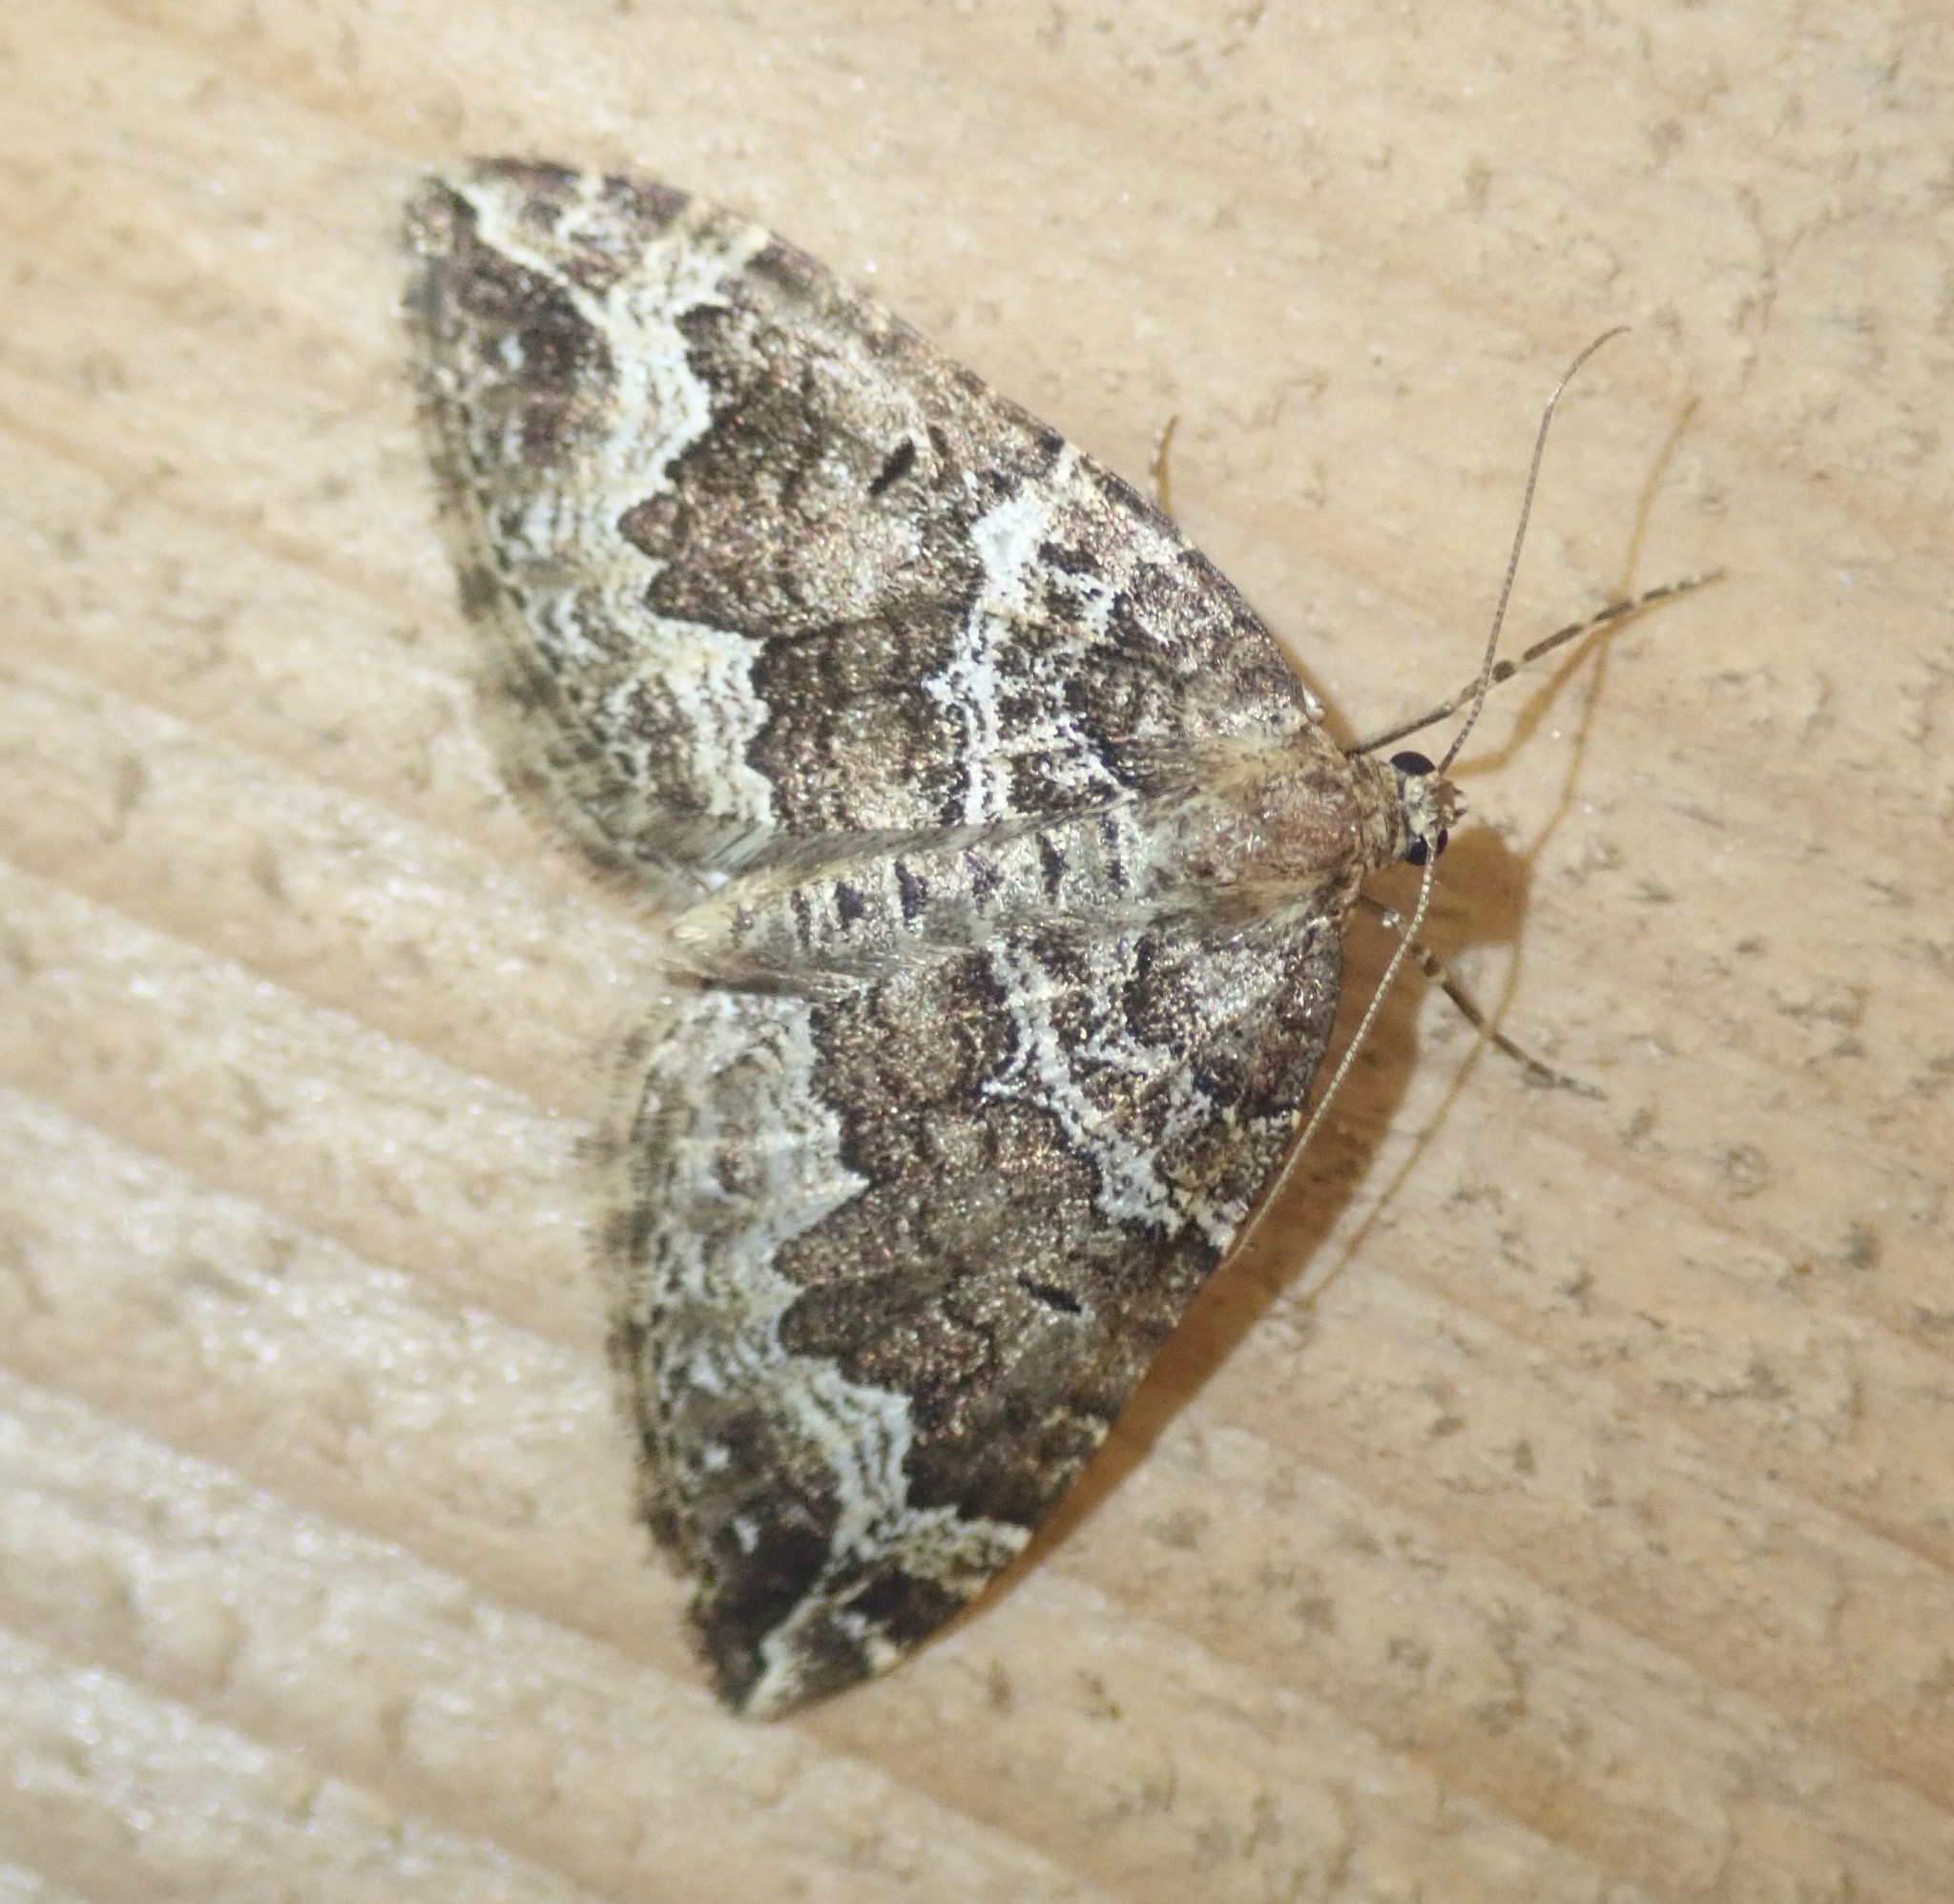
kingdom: Animalia
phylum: Arthropoda
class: Insecta
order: Lepidoptera
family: Geometridae
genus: Lampropteryx
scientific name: Lampropteryx suffumata
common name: Water carpet
